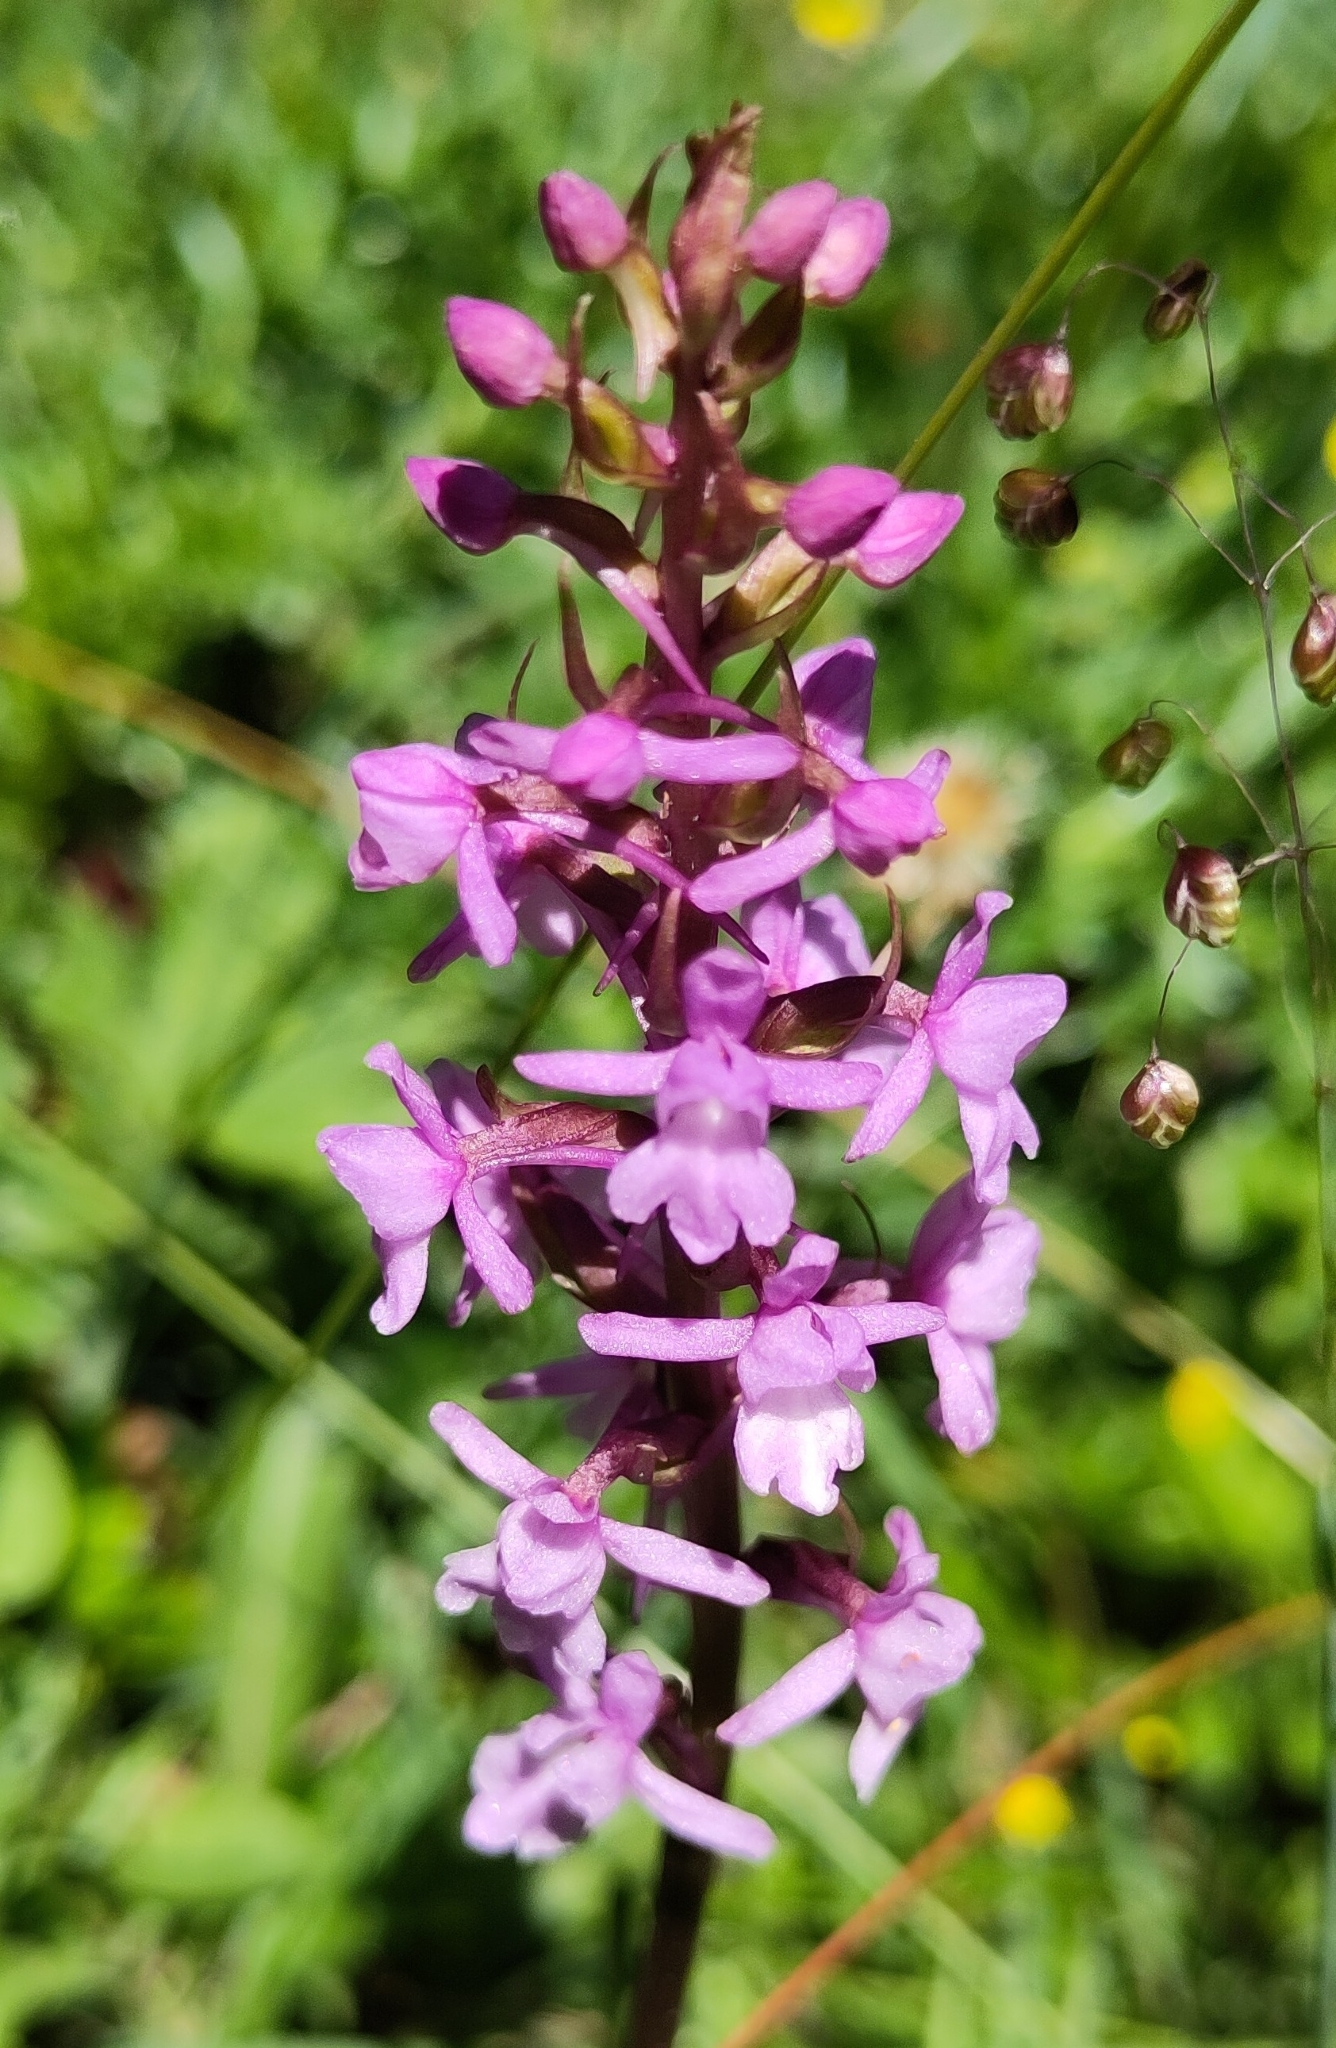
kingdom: Plantae
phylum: Tracheophyta
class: Liliopsida
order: Asparagales
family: Orchidaceae
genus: Gymnadenia
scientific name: Gymnadenia conopsea
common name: Fragrant orchid
